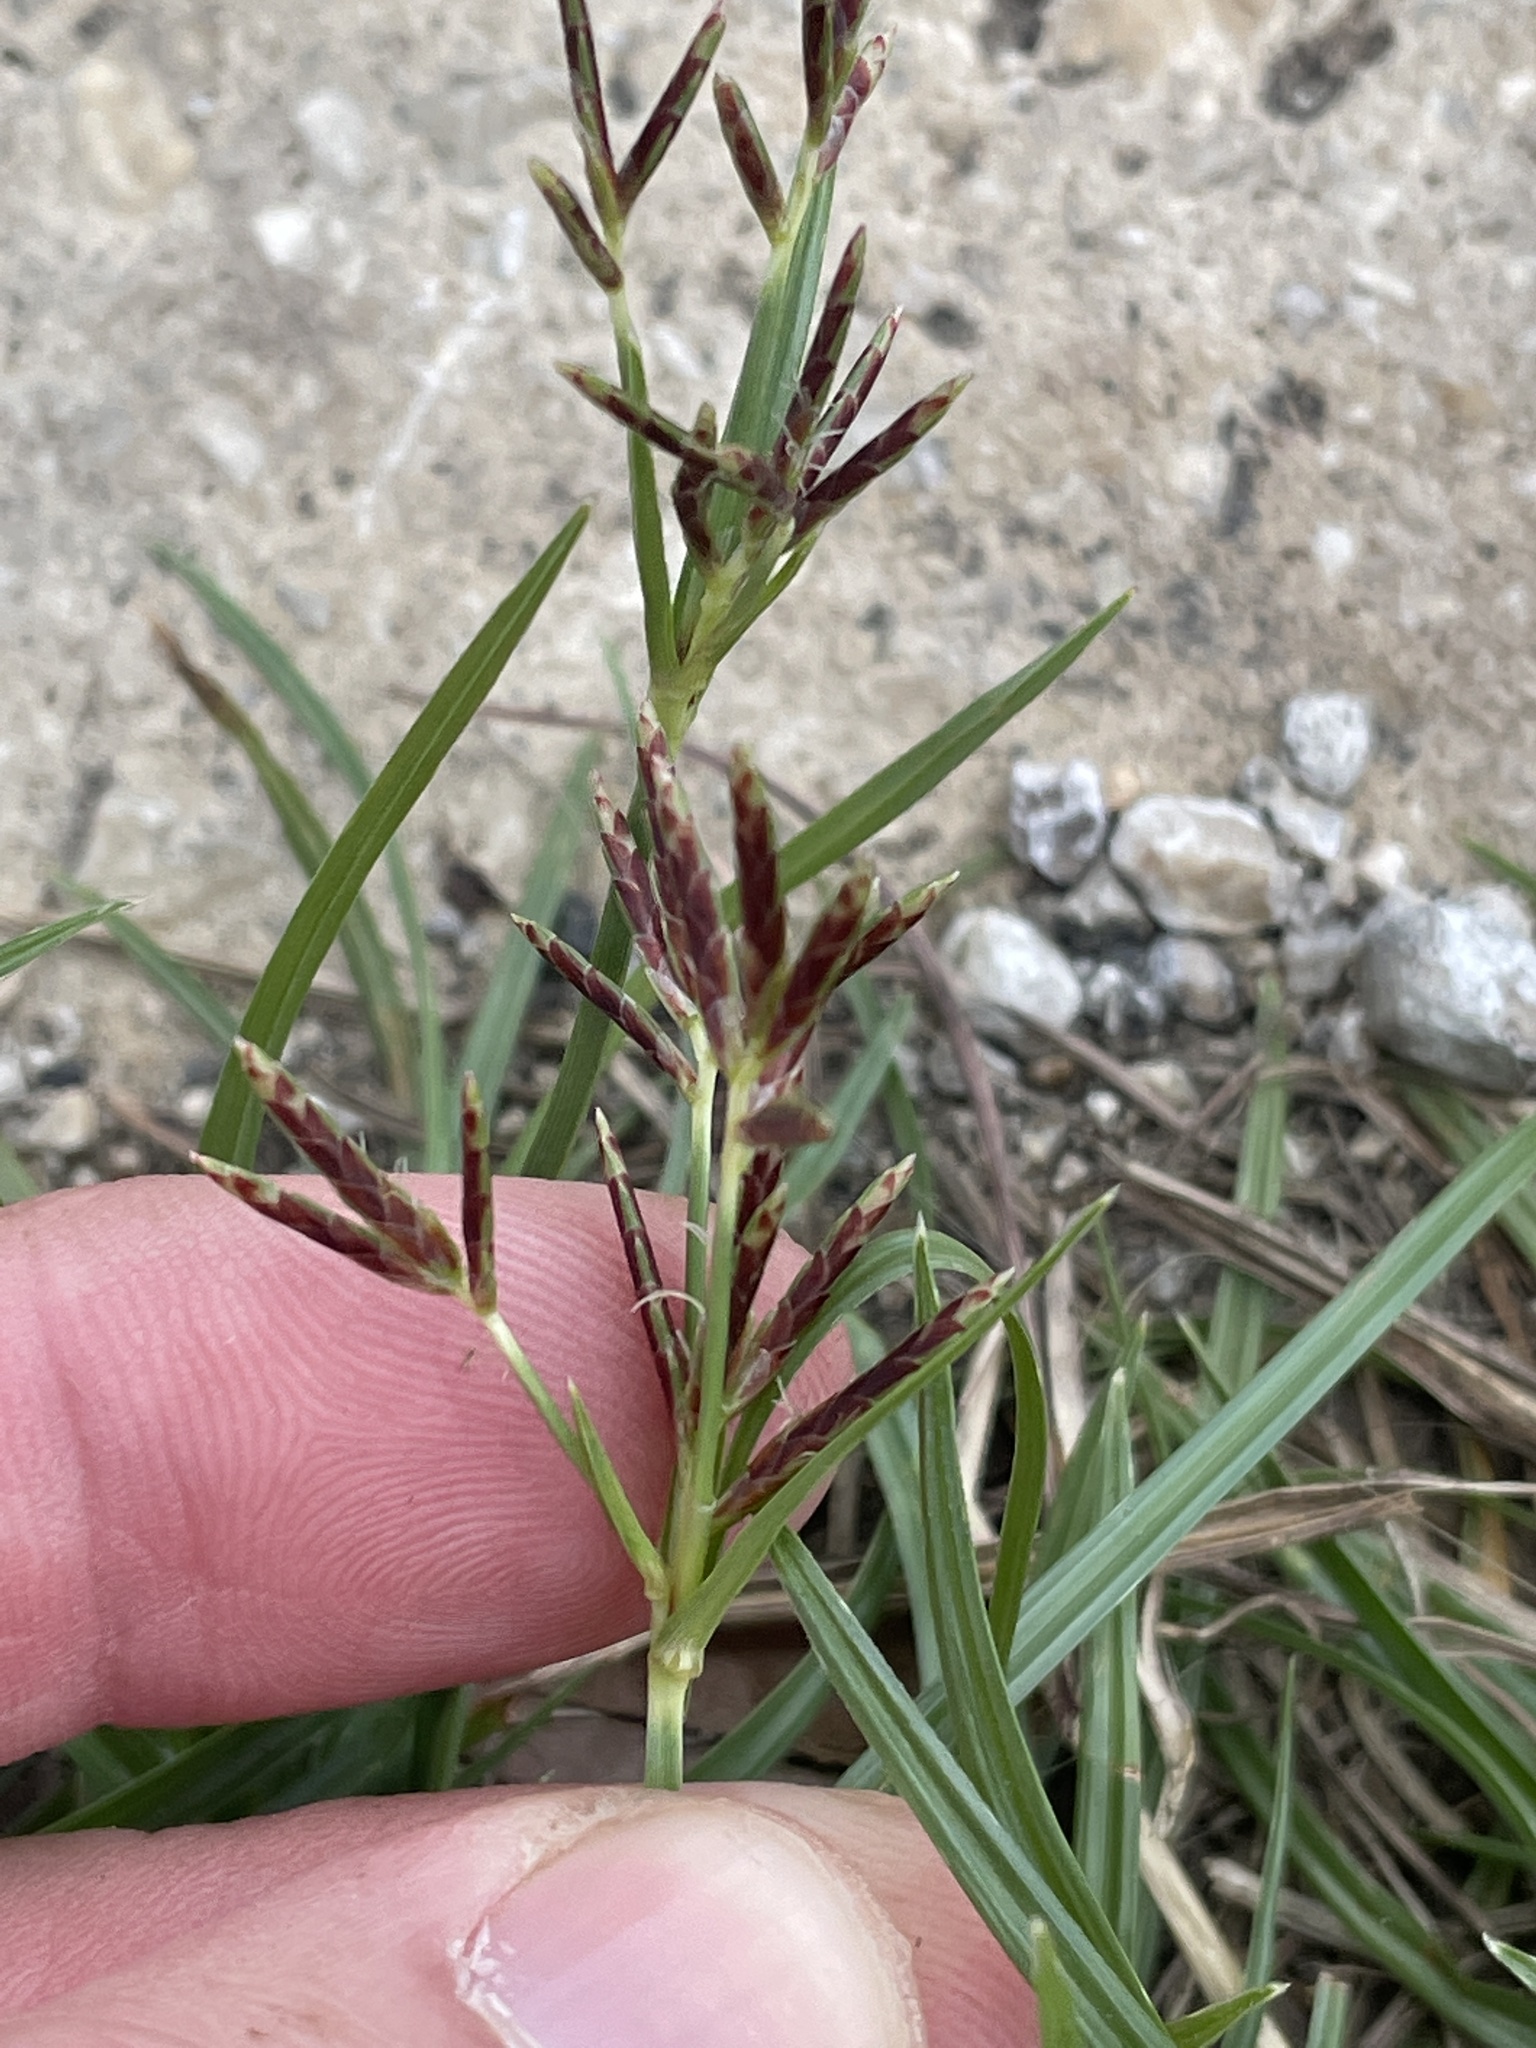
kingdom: Plantae
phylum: Tracheophyta
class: Liliopsida
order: Poales
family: Cyperaceae
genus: Cyperus
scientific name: Cyperus rotundus
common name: Nutgrass
